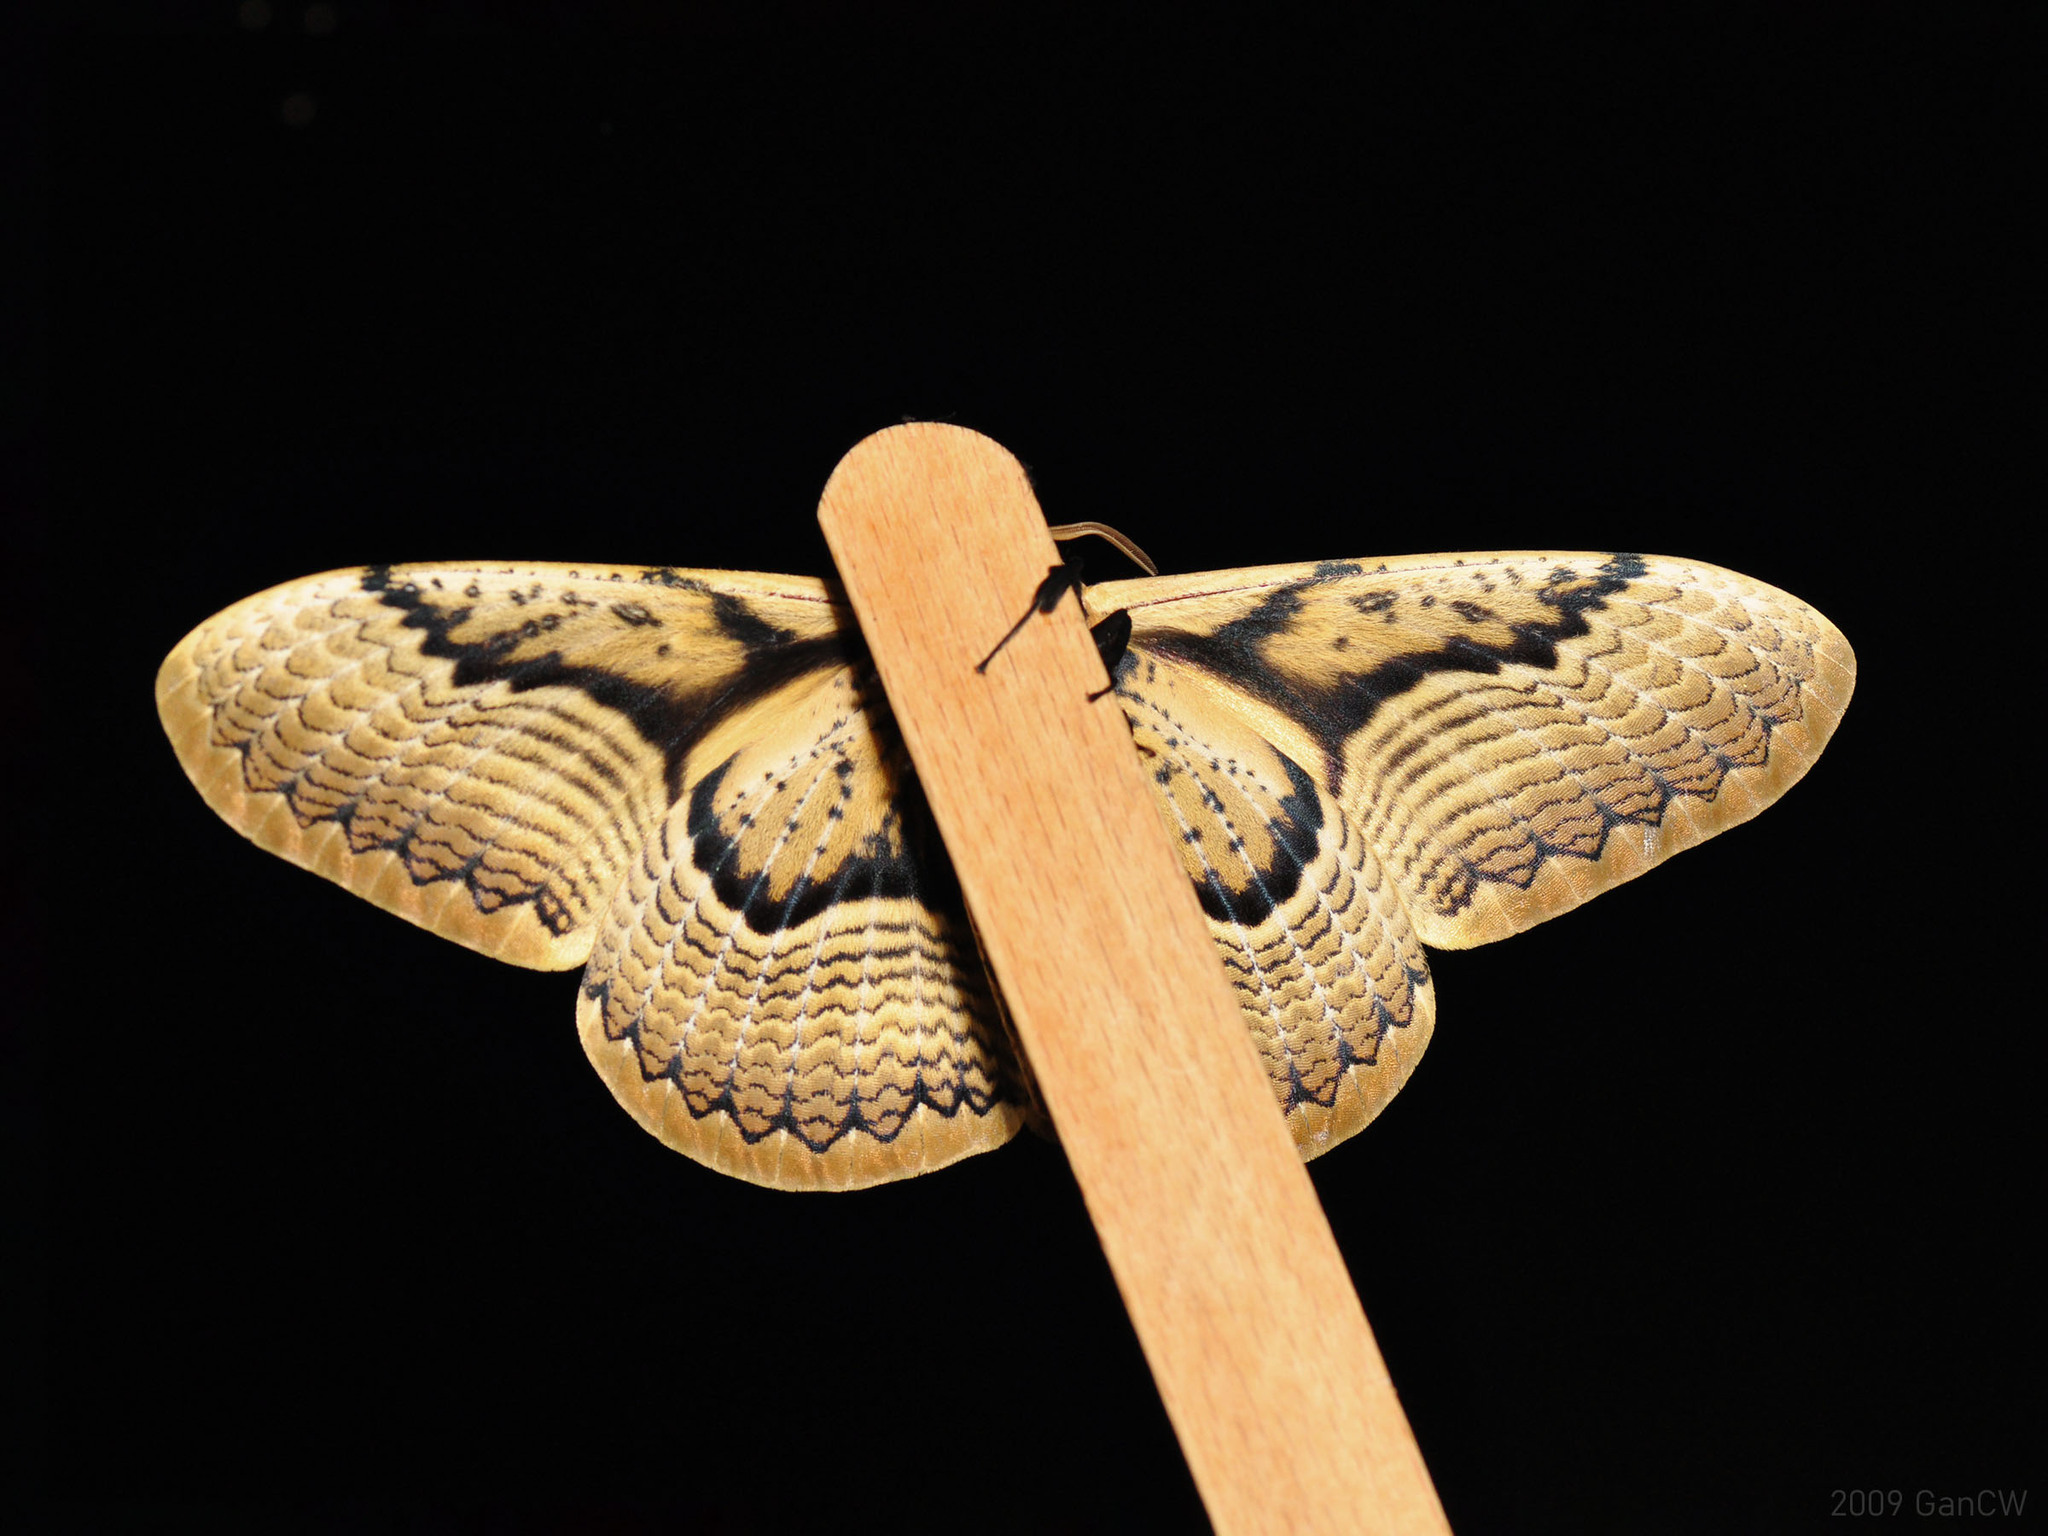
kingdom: Animalia
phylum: Arthropoda
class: Insecta
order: Lepidoptera
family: Brahmaeidae
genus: Brahmaea
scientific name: Brahmaea hearseyi
